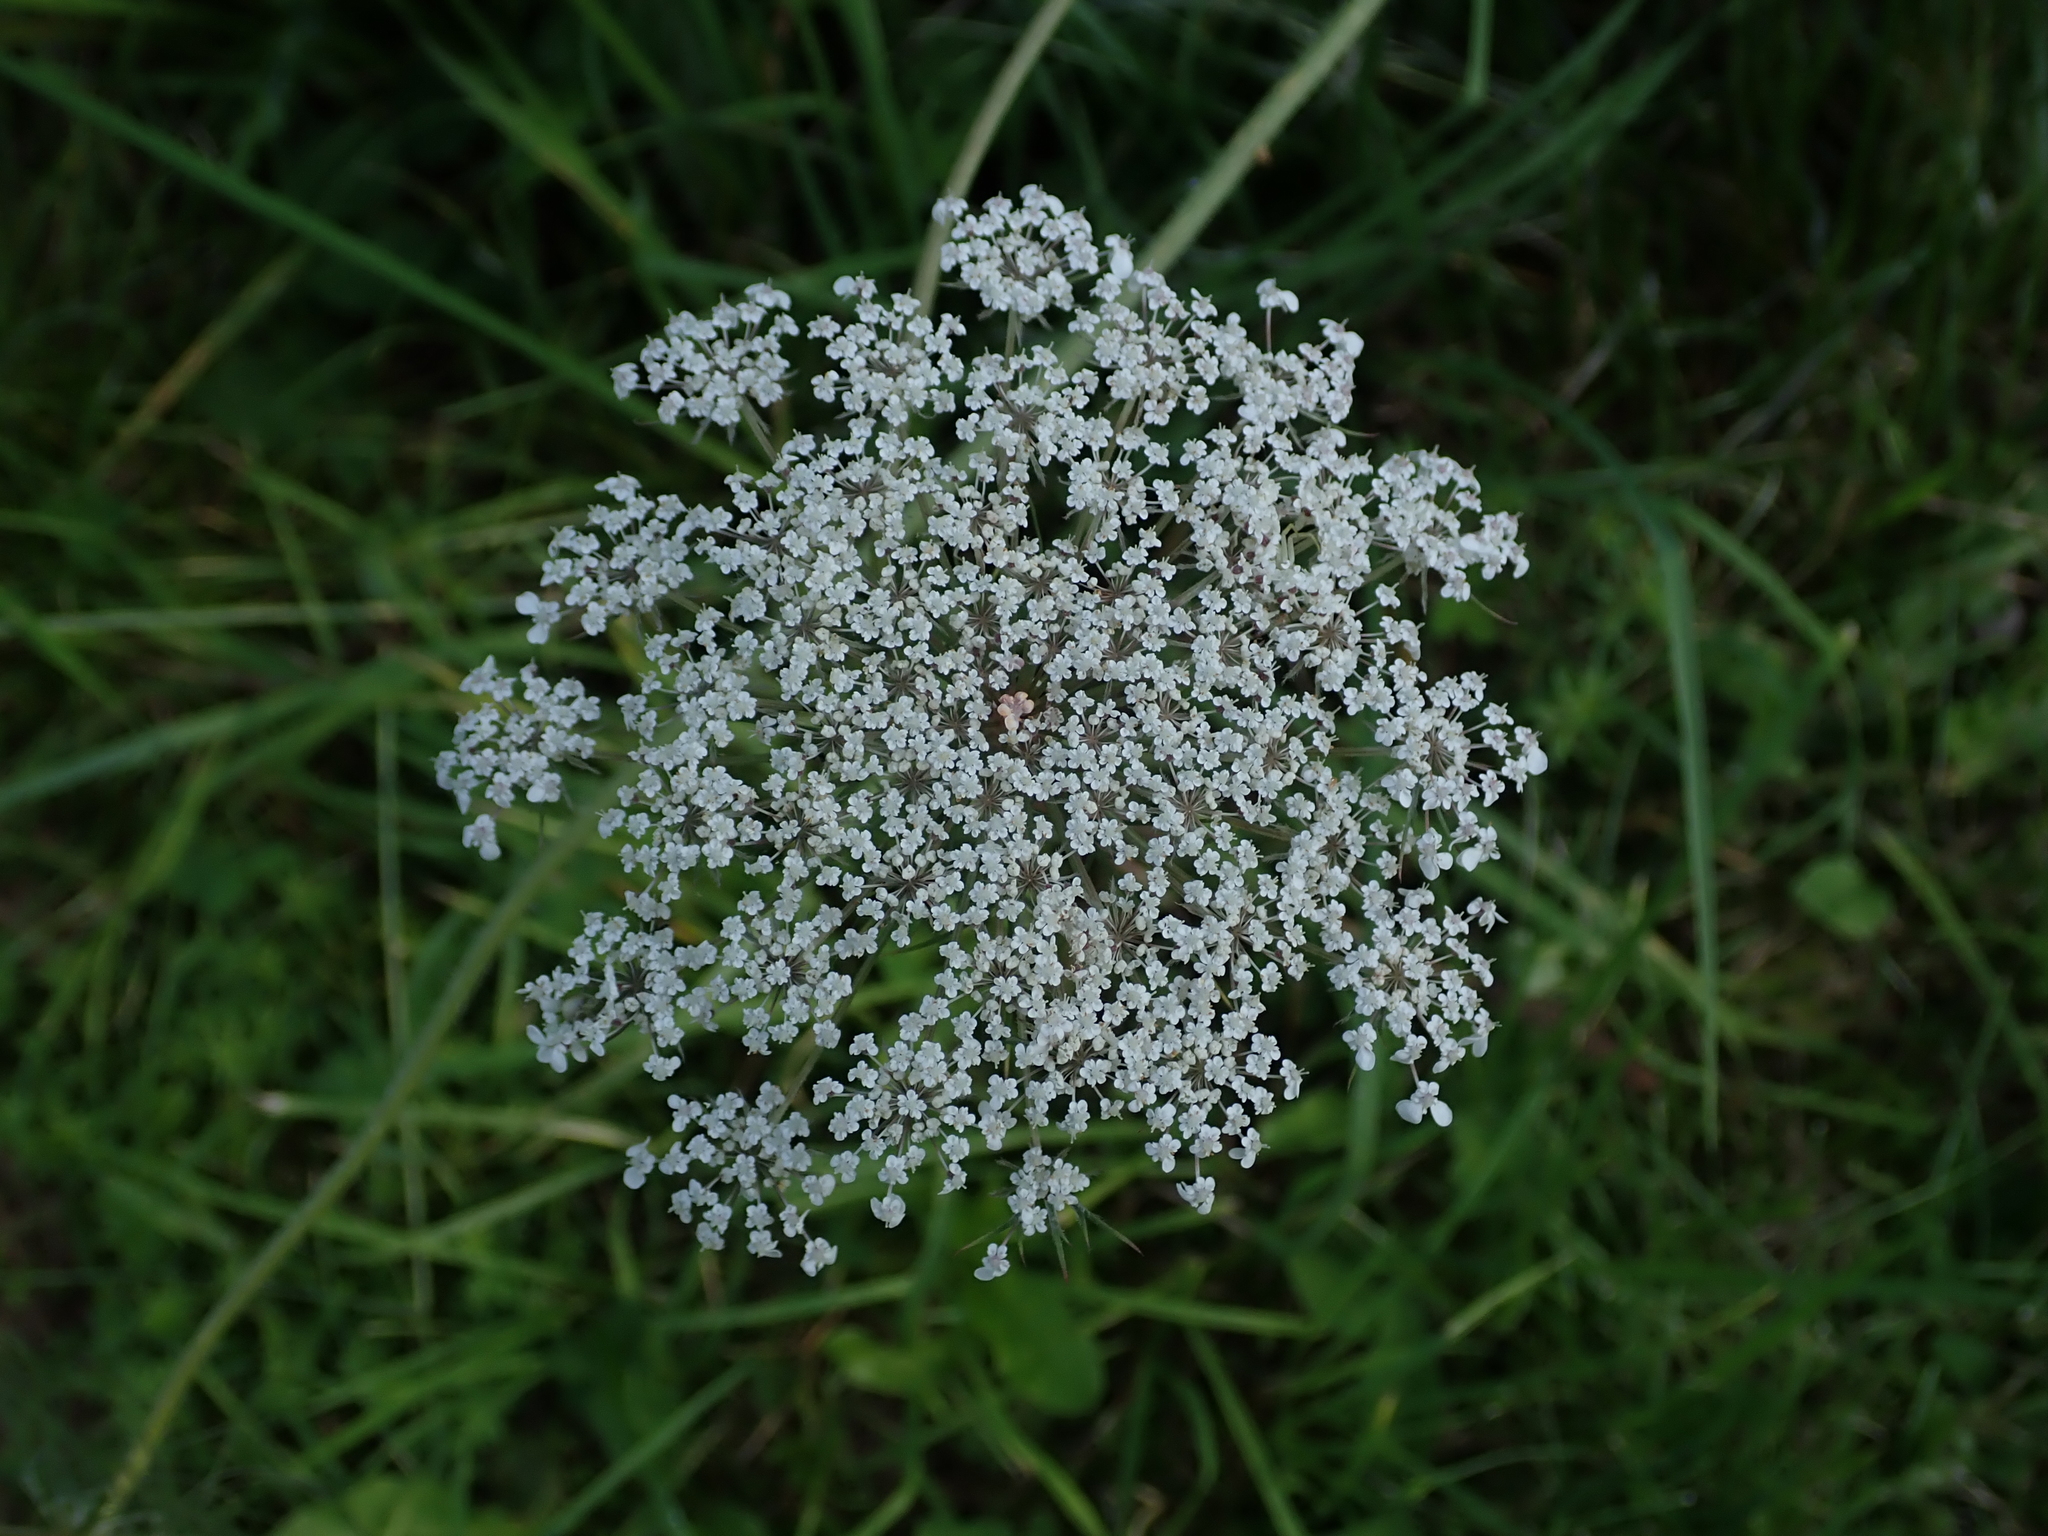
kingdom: Plantae
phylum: Tracheophyta
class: Magnoliopsida
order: Apiales
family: Apiaceae
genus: Daucus
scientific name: Daucus carota
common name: Wild carrot
